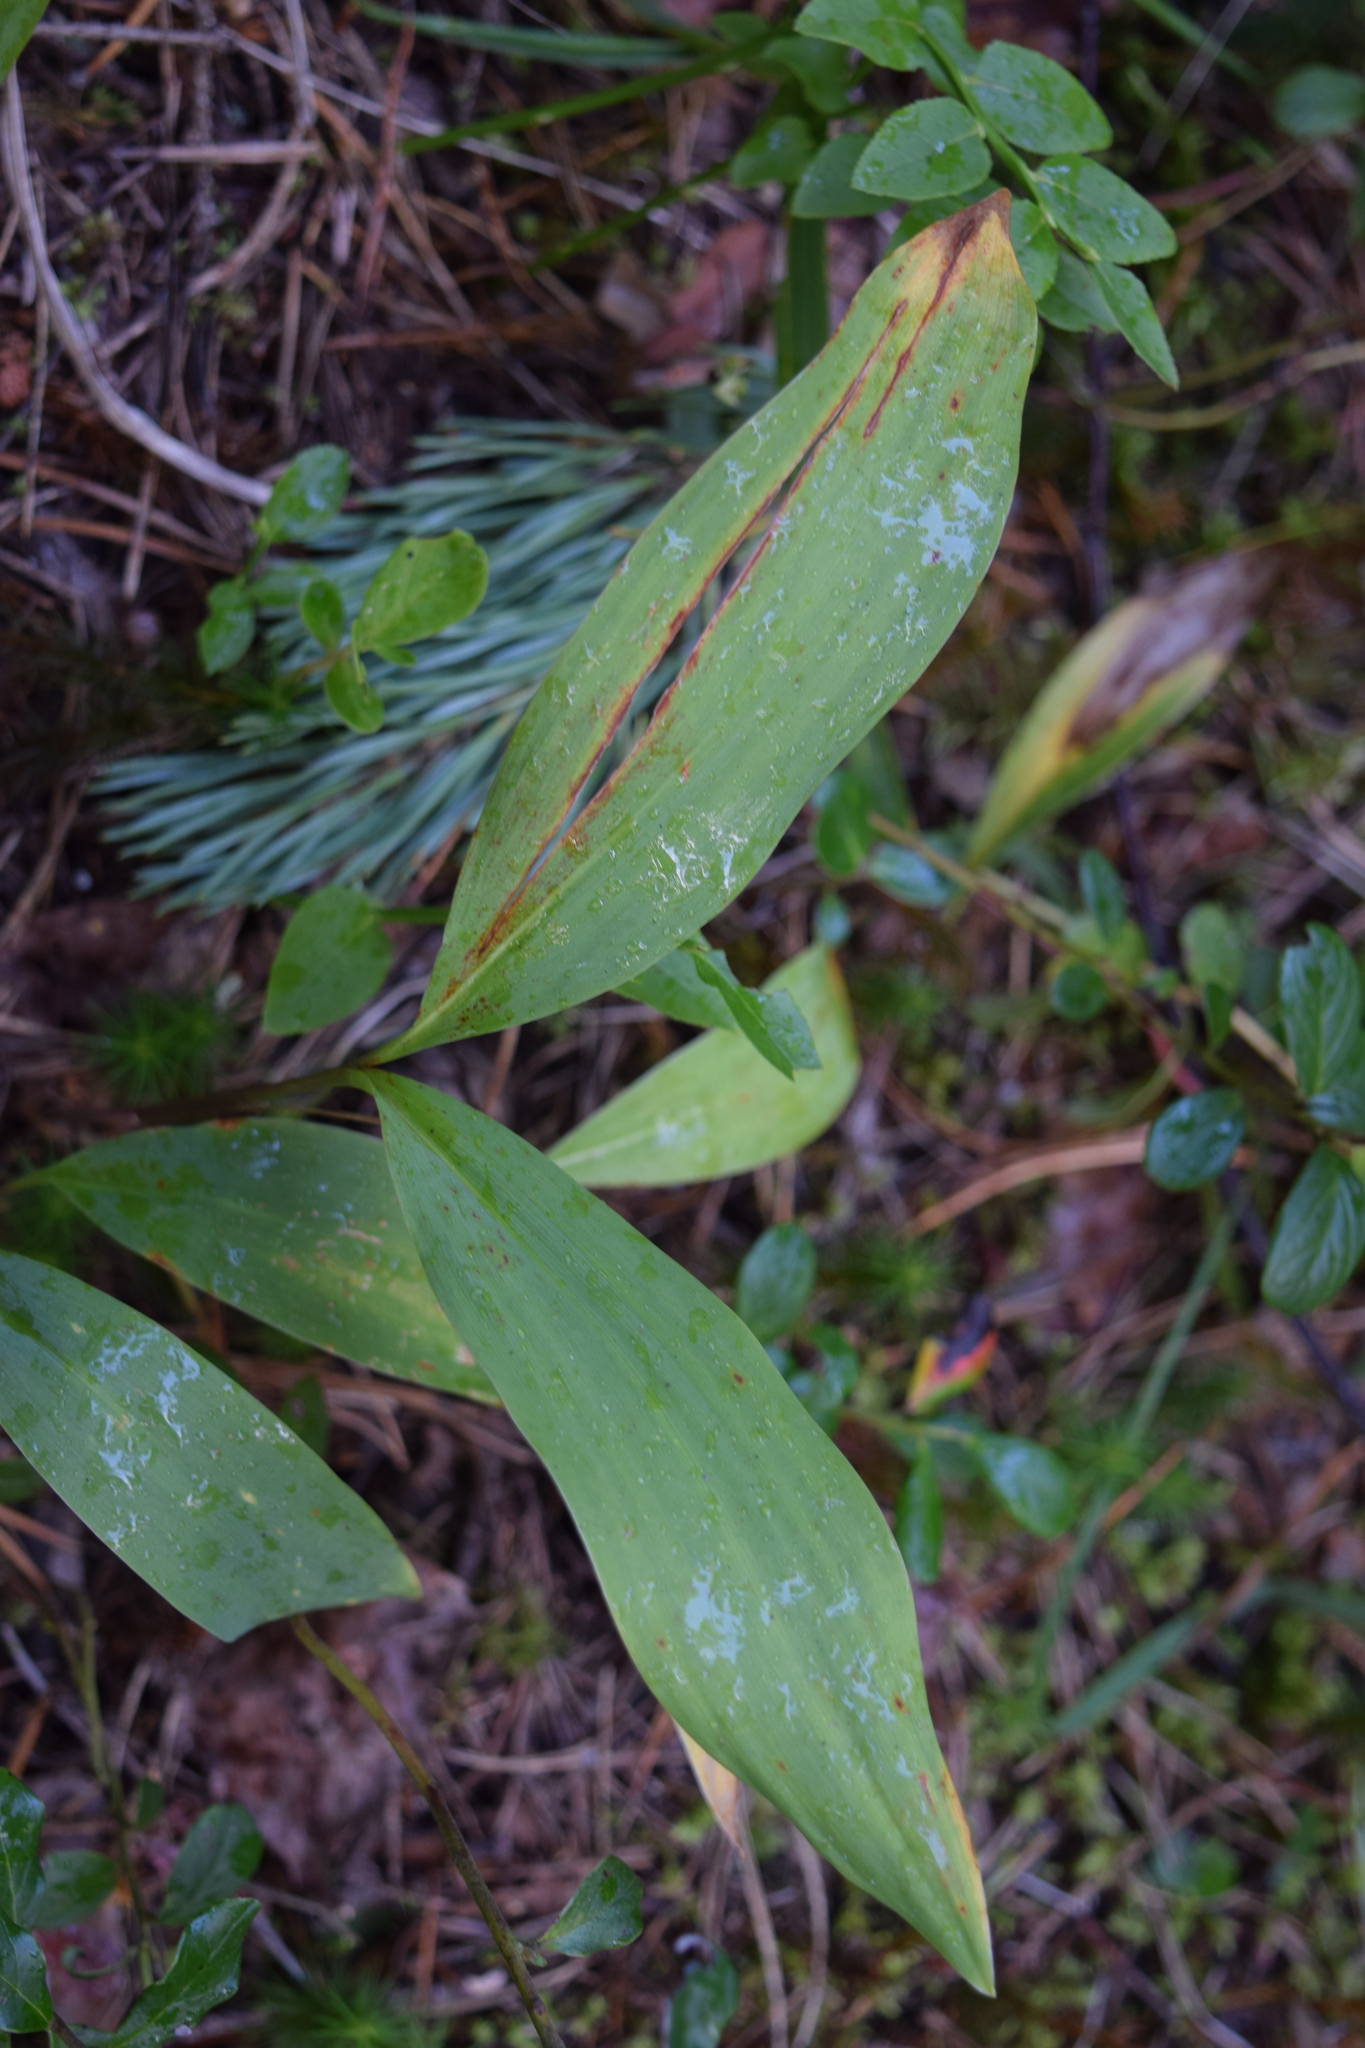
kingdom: Plantae
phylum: Tracheophyta
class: Liliopsida
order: Asparagales
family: Asparagaceae
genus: Convallaria
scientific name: Convallaria majalis
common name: Lily-of-the-valley
